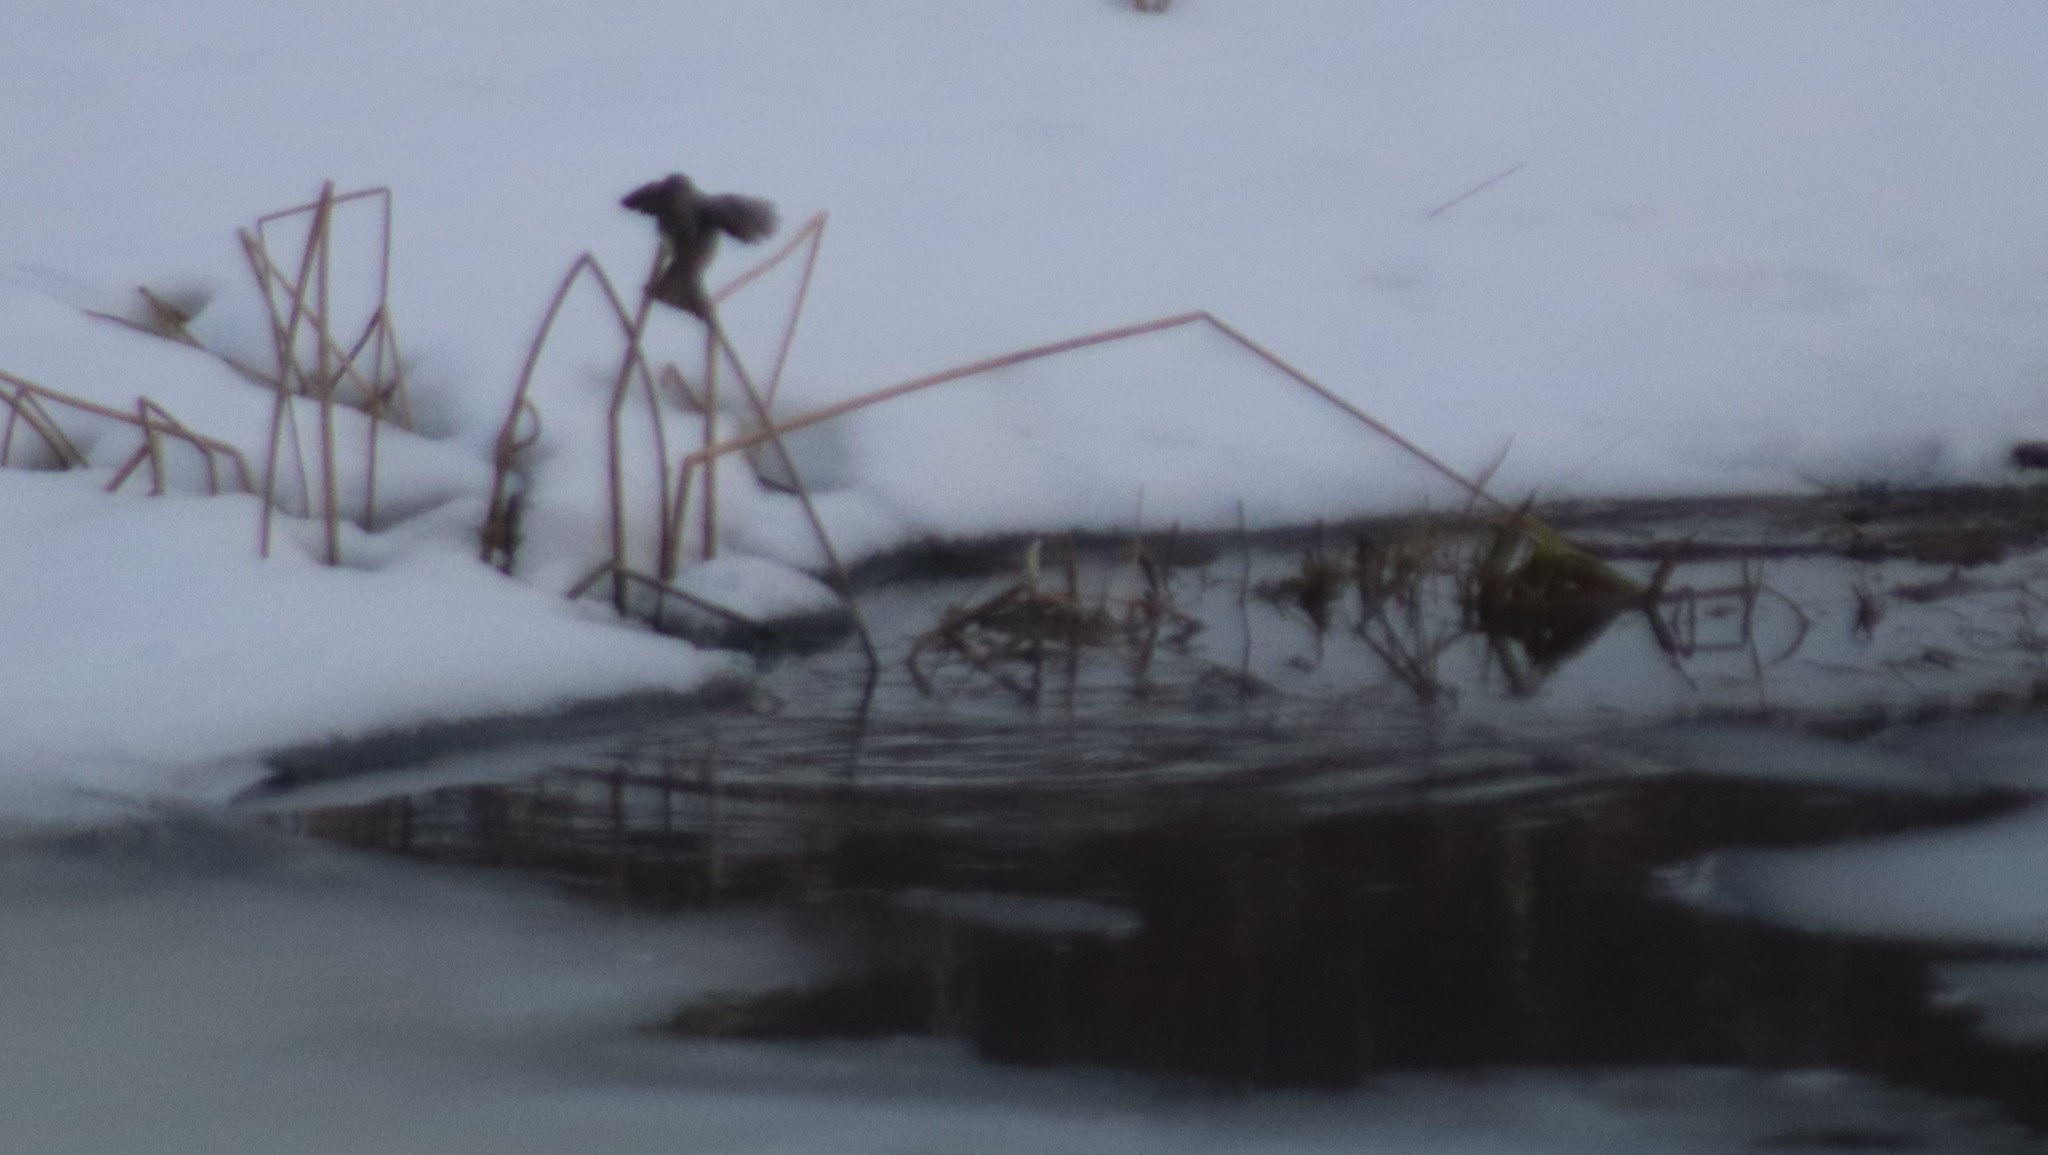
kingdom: Animalia
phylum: Chordata
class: Aves
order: Passeriformes
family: Tyrannidae
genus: Sayornis
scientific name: Sayornis phoebe
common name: Eastern phoebe
